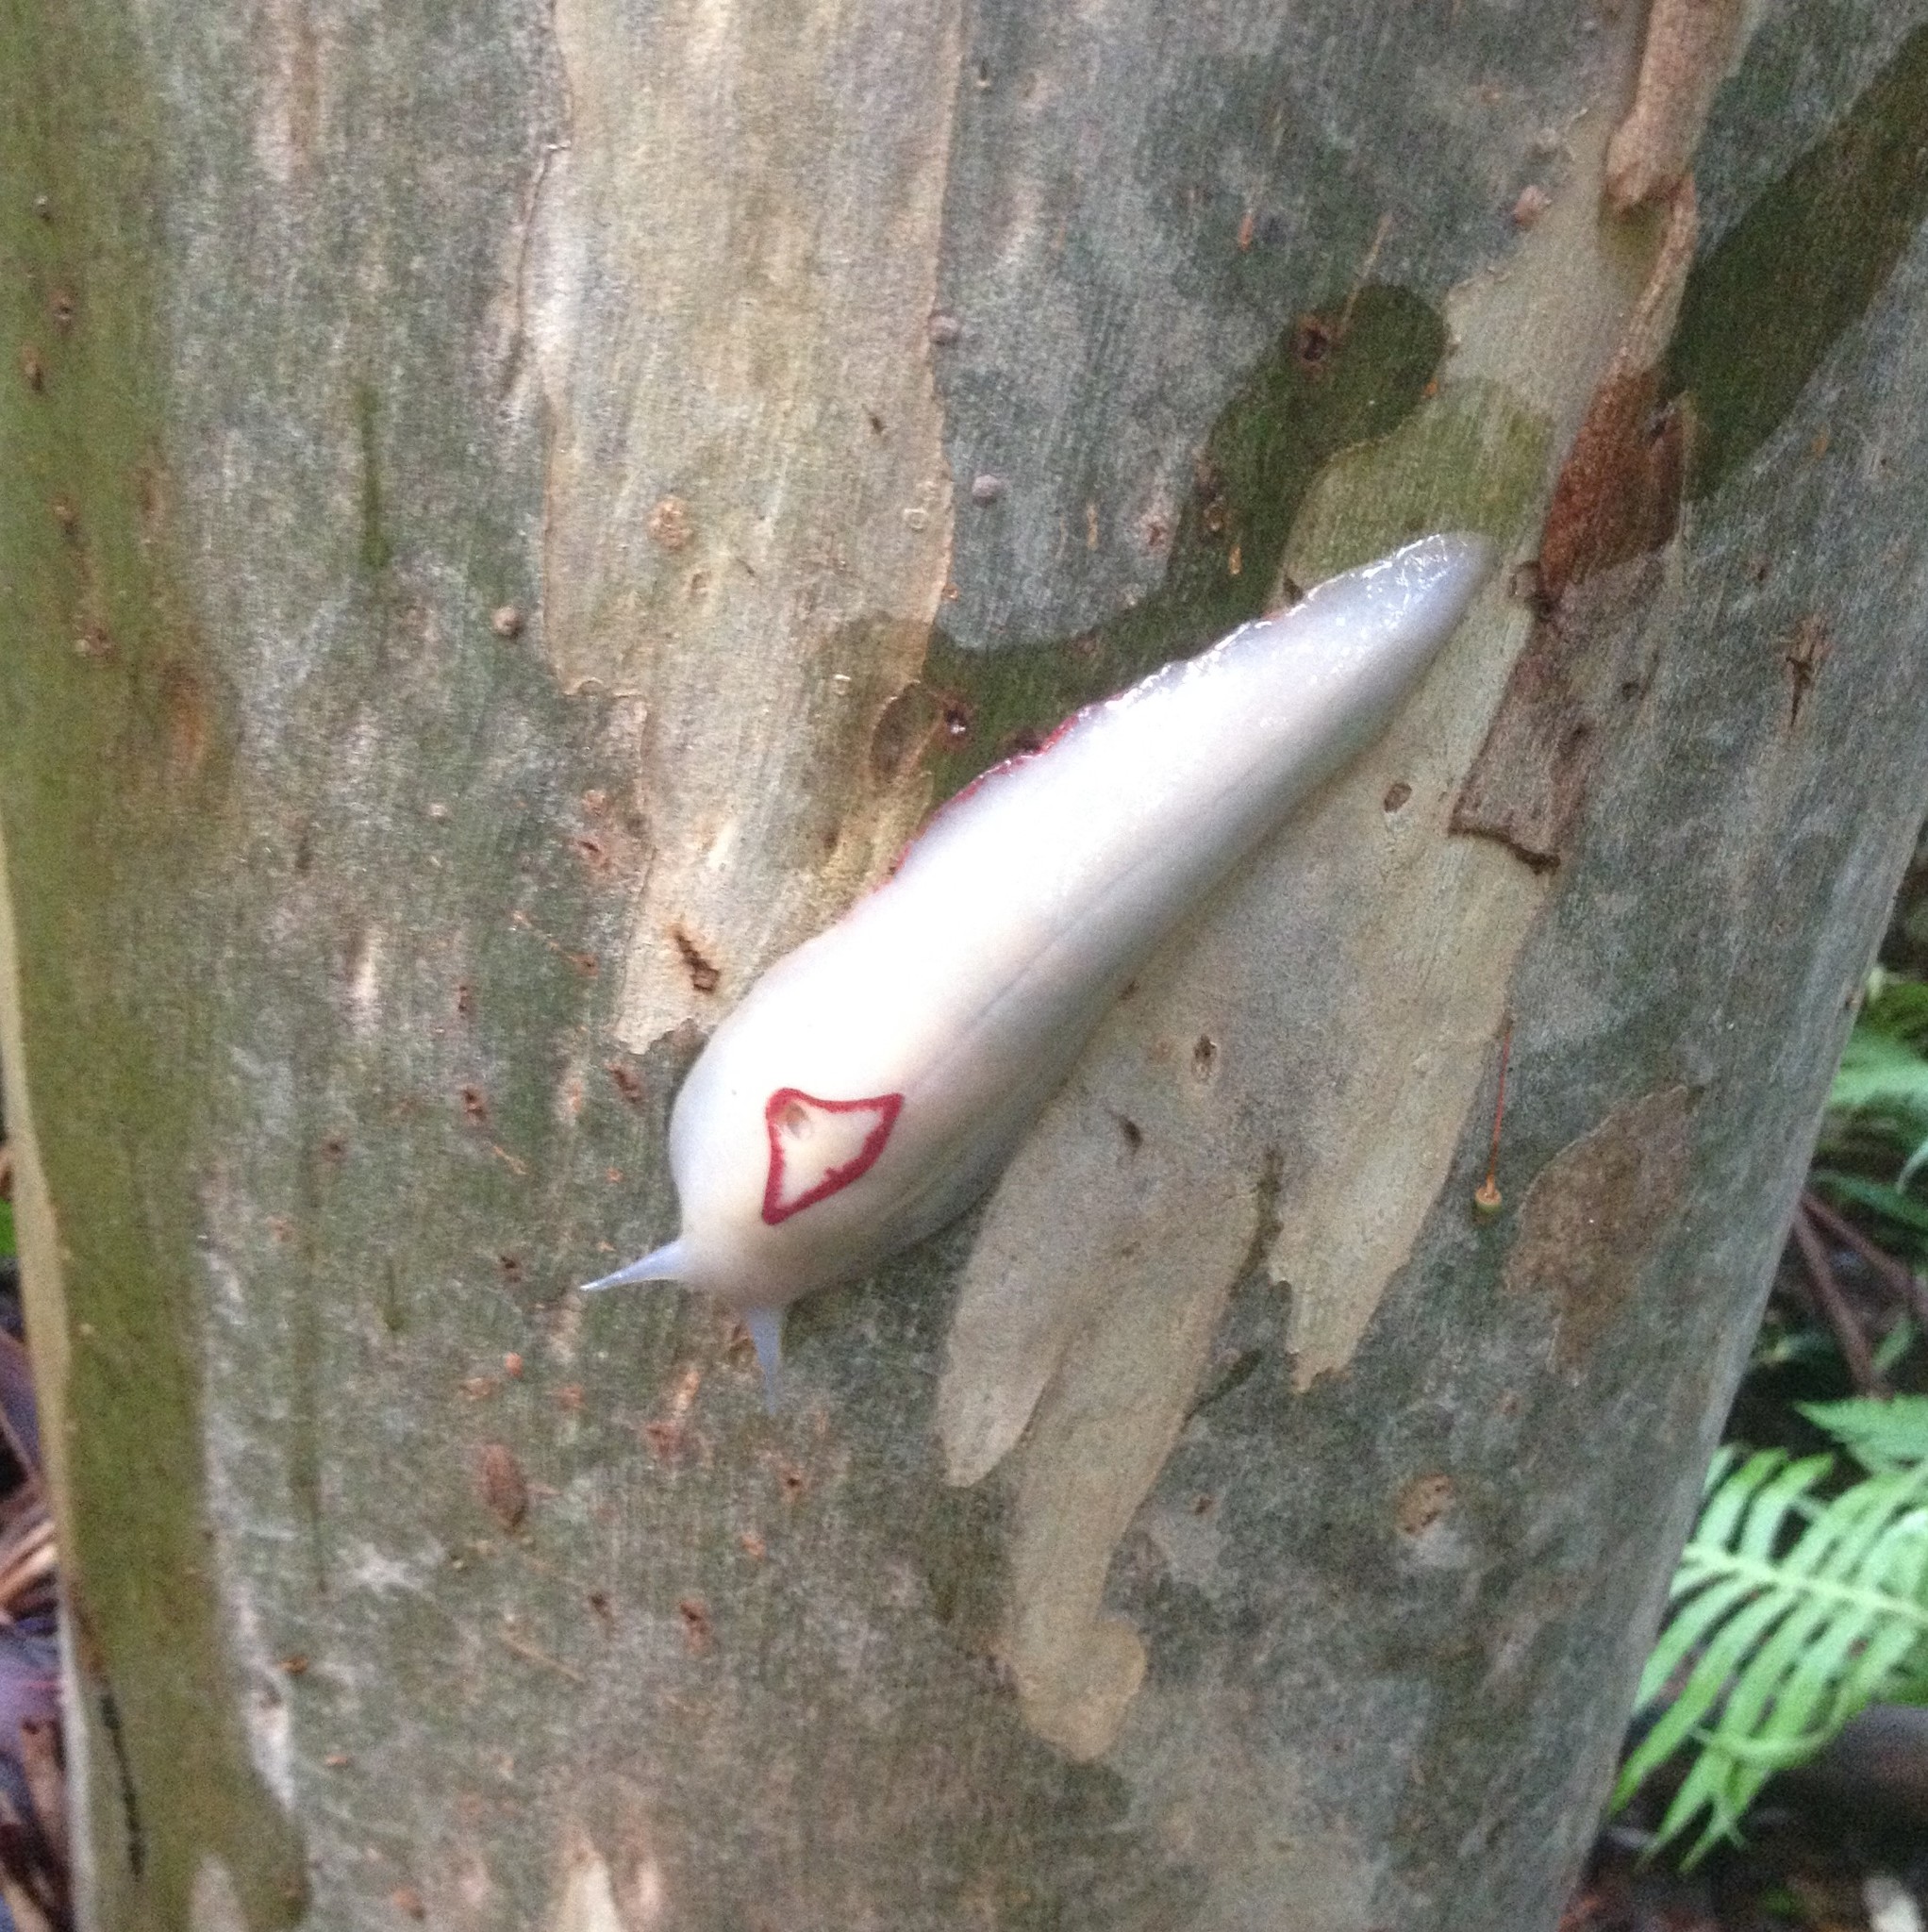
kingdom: Animalia
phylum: Mollusca
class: Gastropoda
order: Stylommatophora
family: Athoracophoridae
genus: Triboniophorus
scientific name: Triboniophorus graeffei
